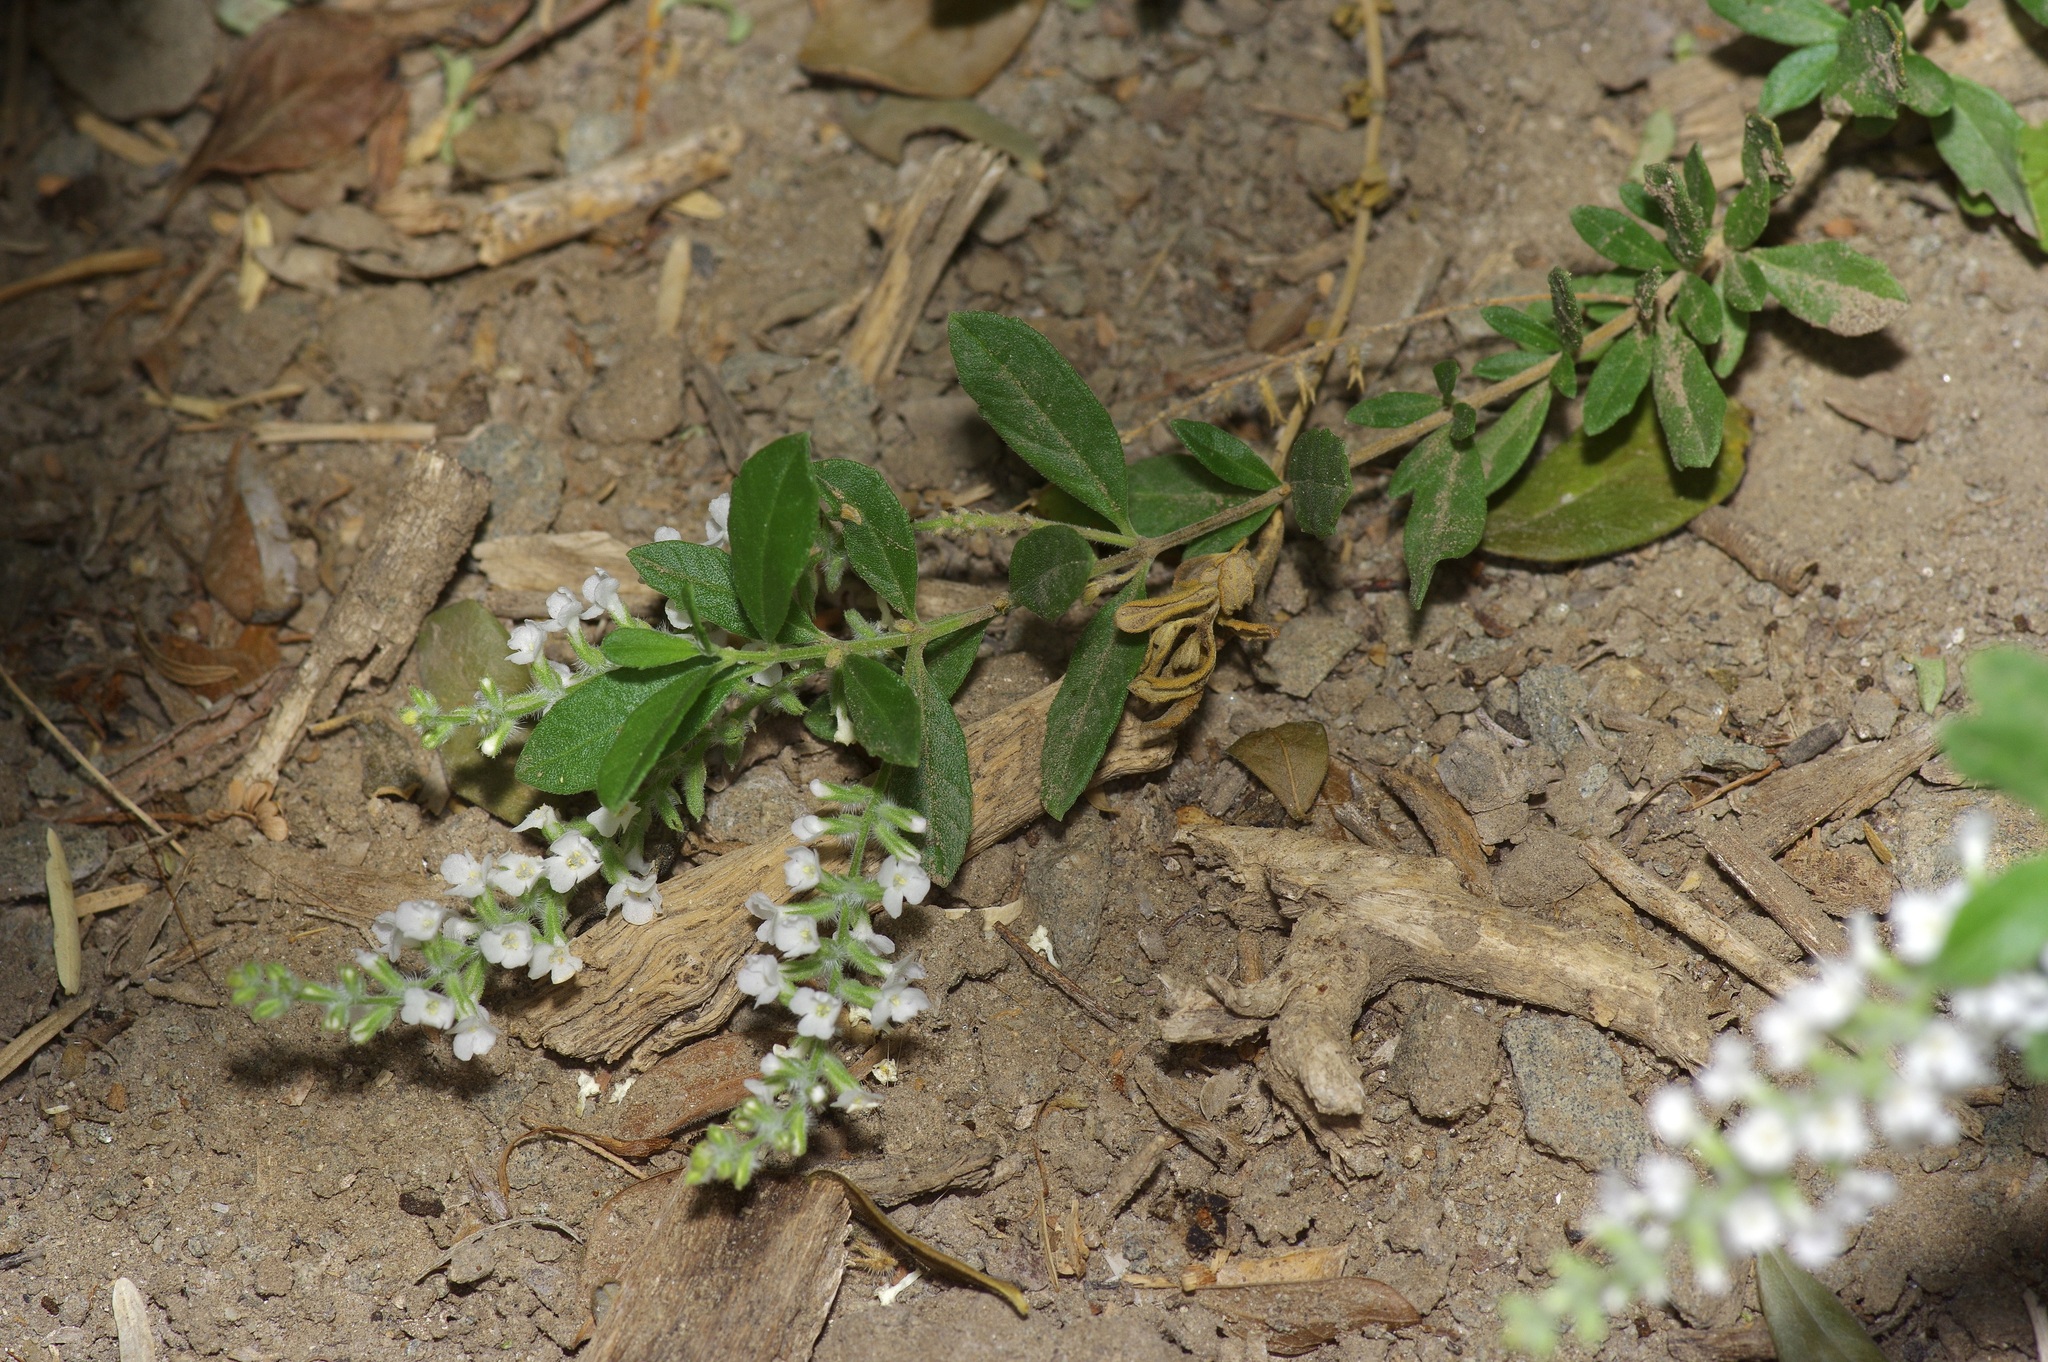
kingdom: Plantae
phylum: Tracheophyta
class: Magnoliopsida
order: Lamiales
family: Verbenaceae
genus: Aloysia
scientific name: Aloysia gratissima
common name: Common bee-brush
